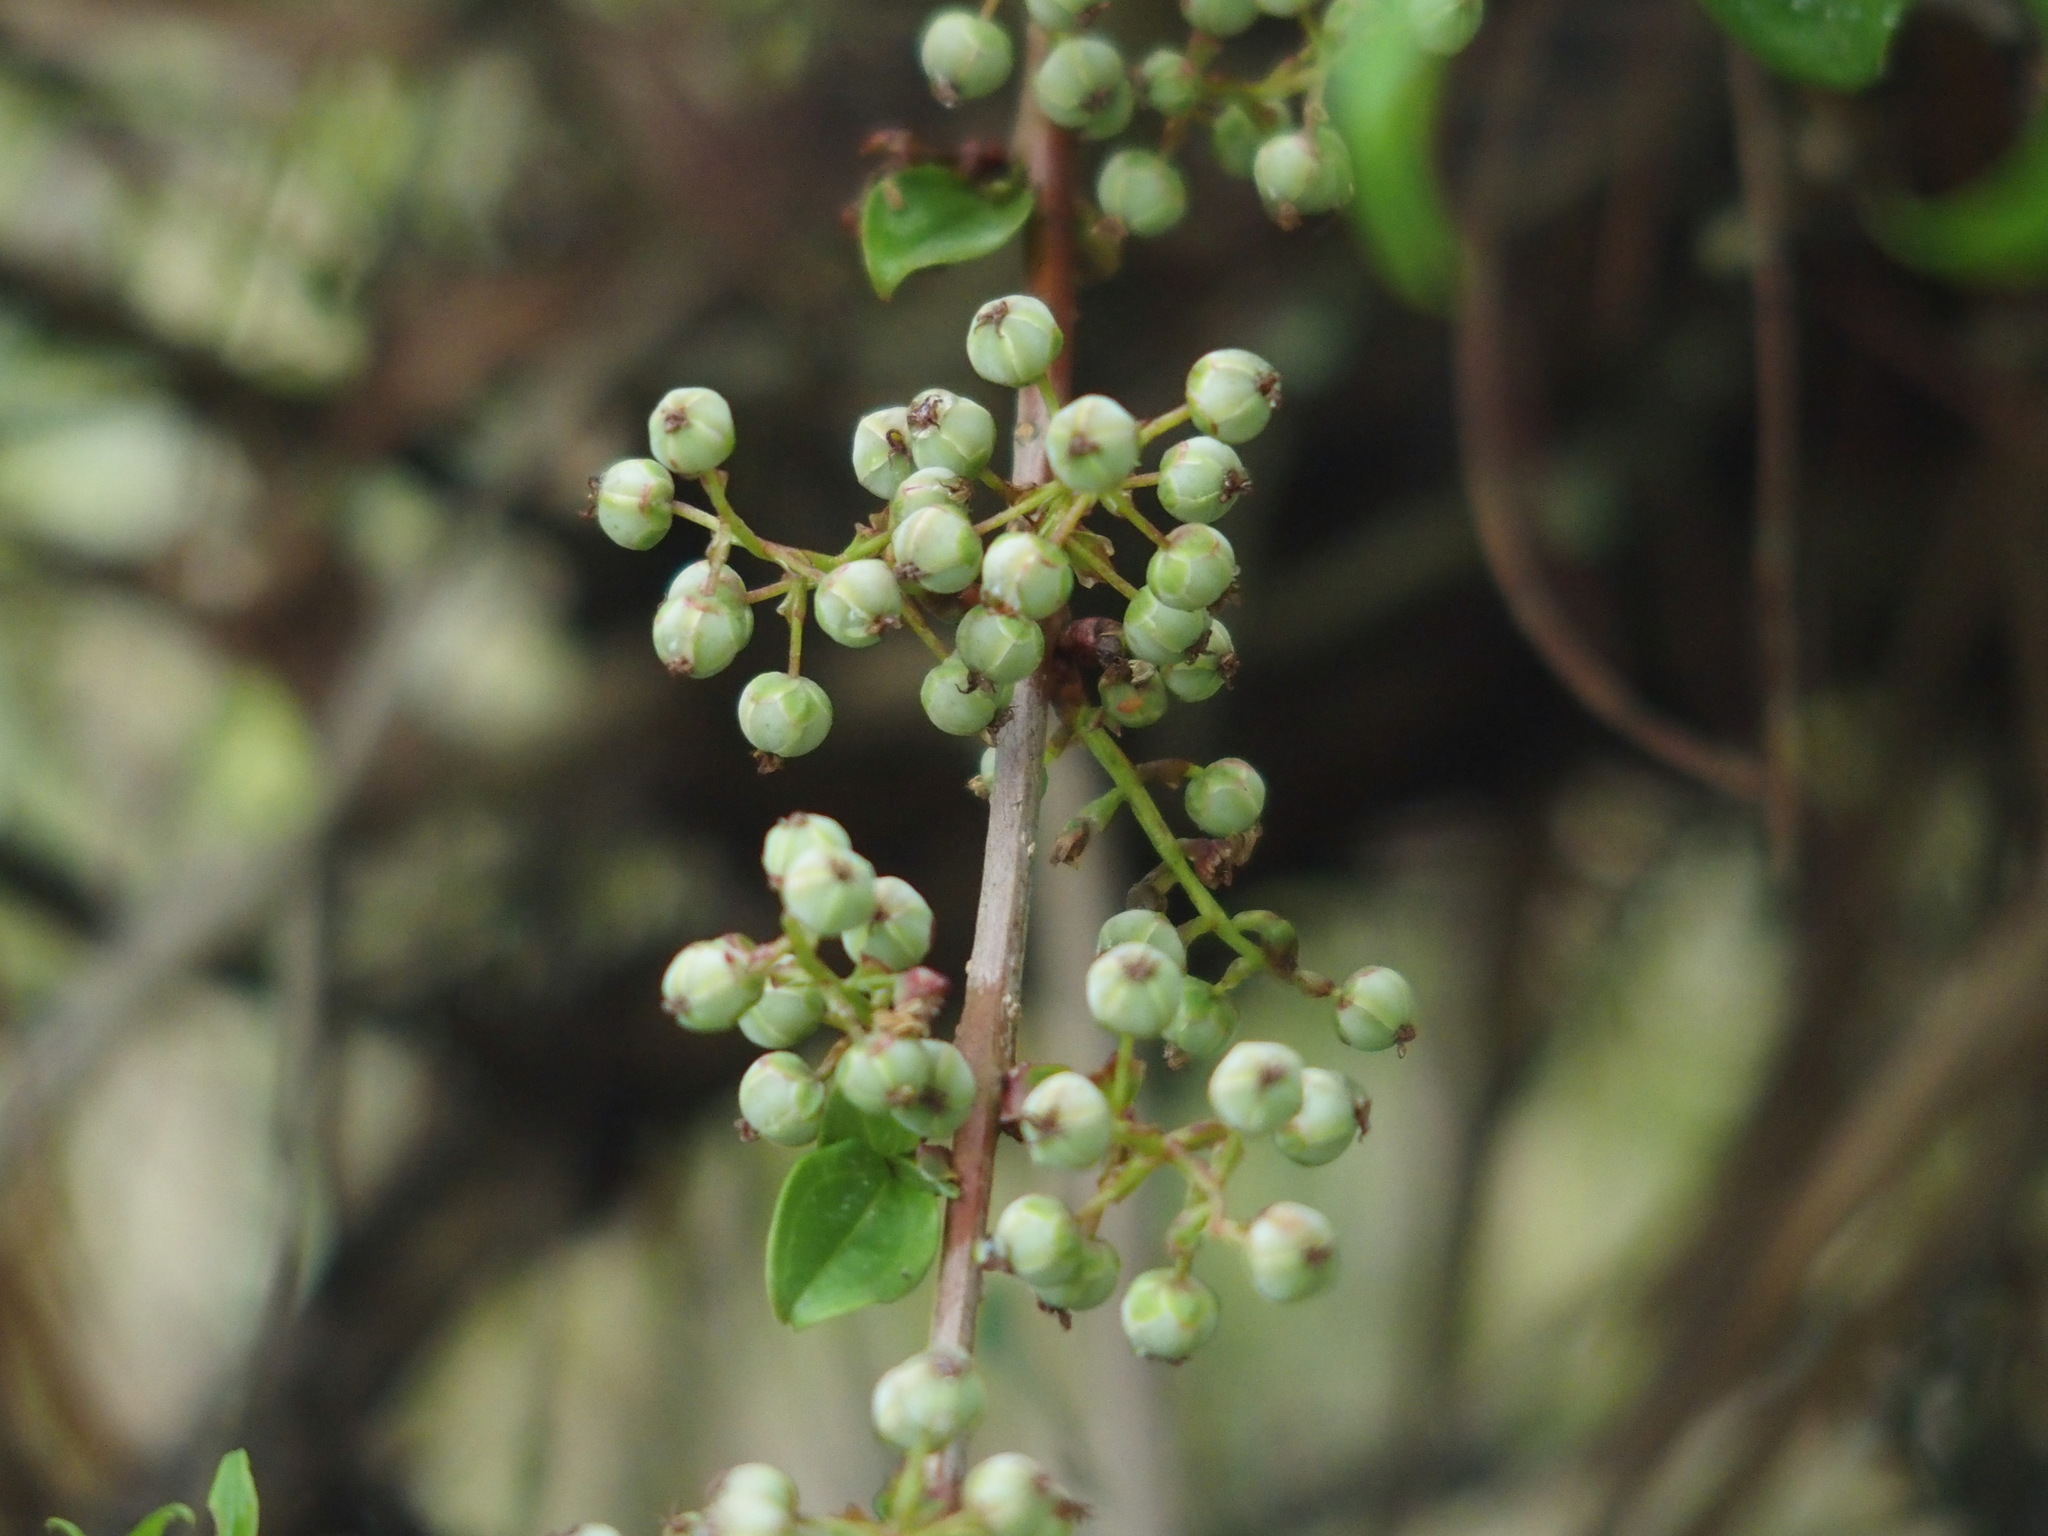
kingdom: Plantae
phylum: Tracheophyta
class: Magnoliopsida
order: Cucurbitales
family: Coriariaceae
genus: Coriaria
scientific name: Coriaria japonica
